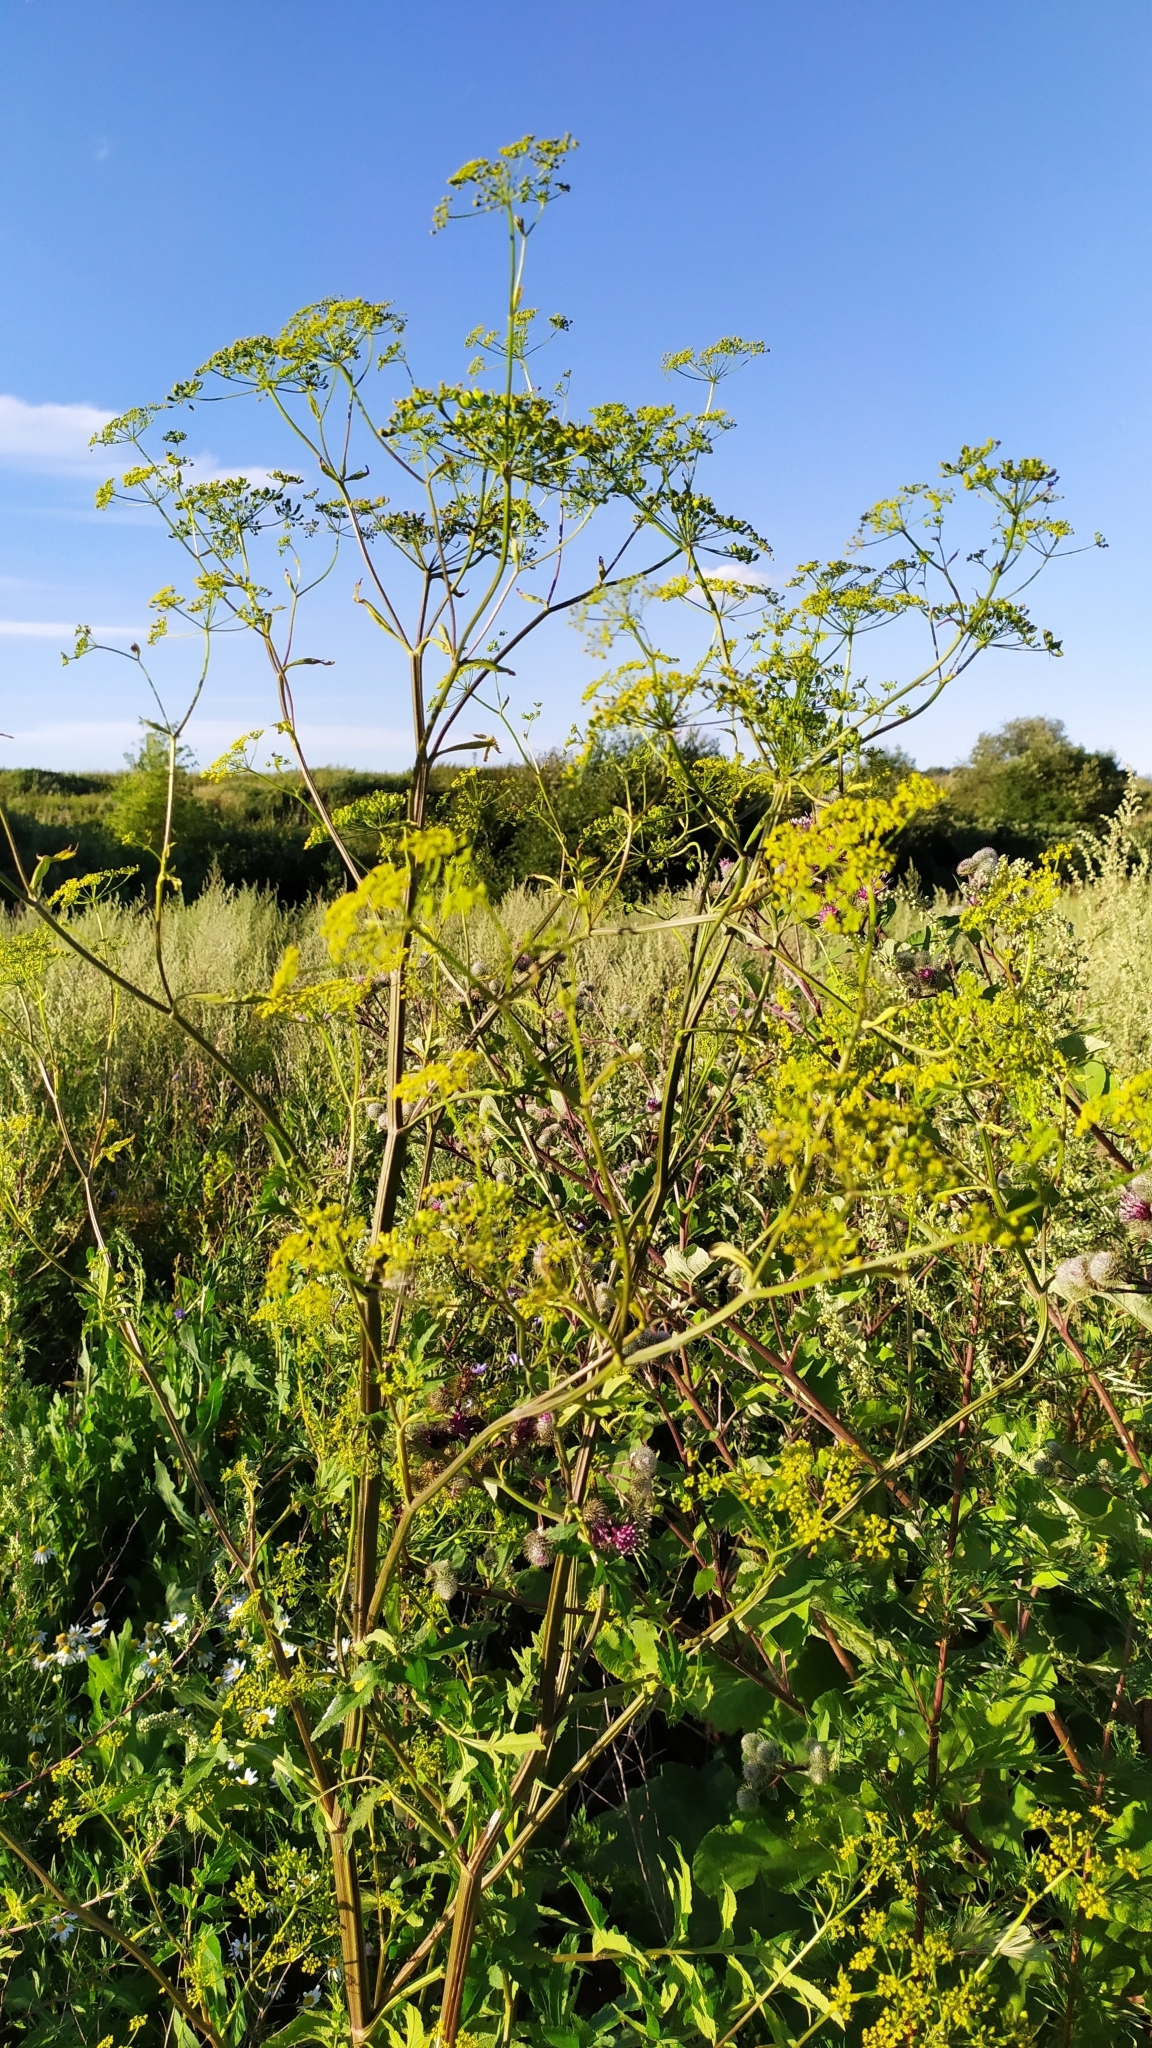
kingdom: Plantae
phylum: Tracheophyta
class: Magnoliopsida
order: Apiales
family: Apiaceae
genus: Pastinaca
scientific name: Pastinaca sativa
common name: Wild parsnip
